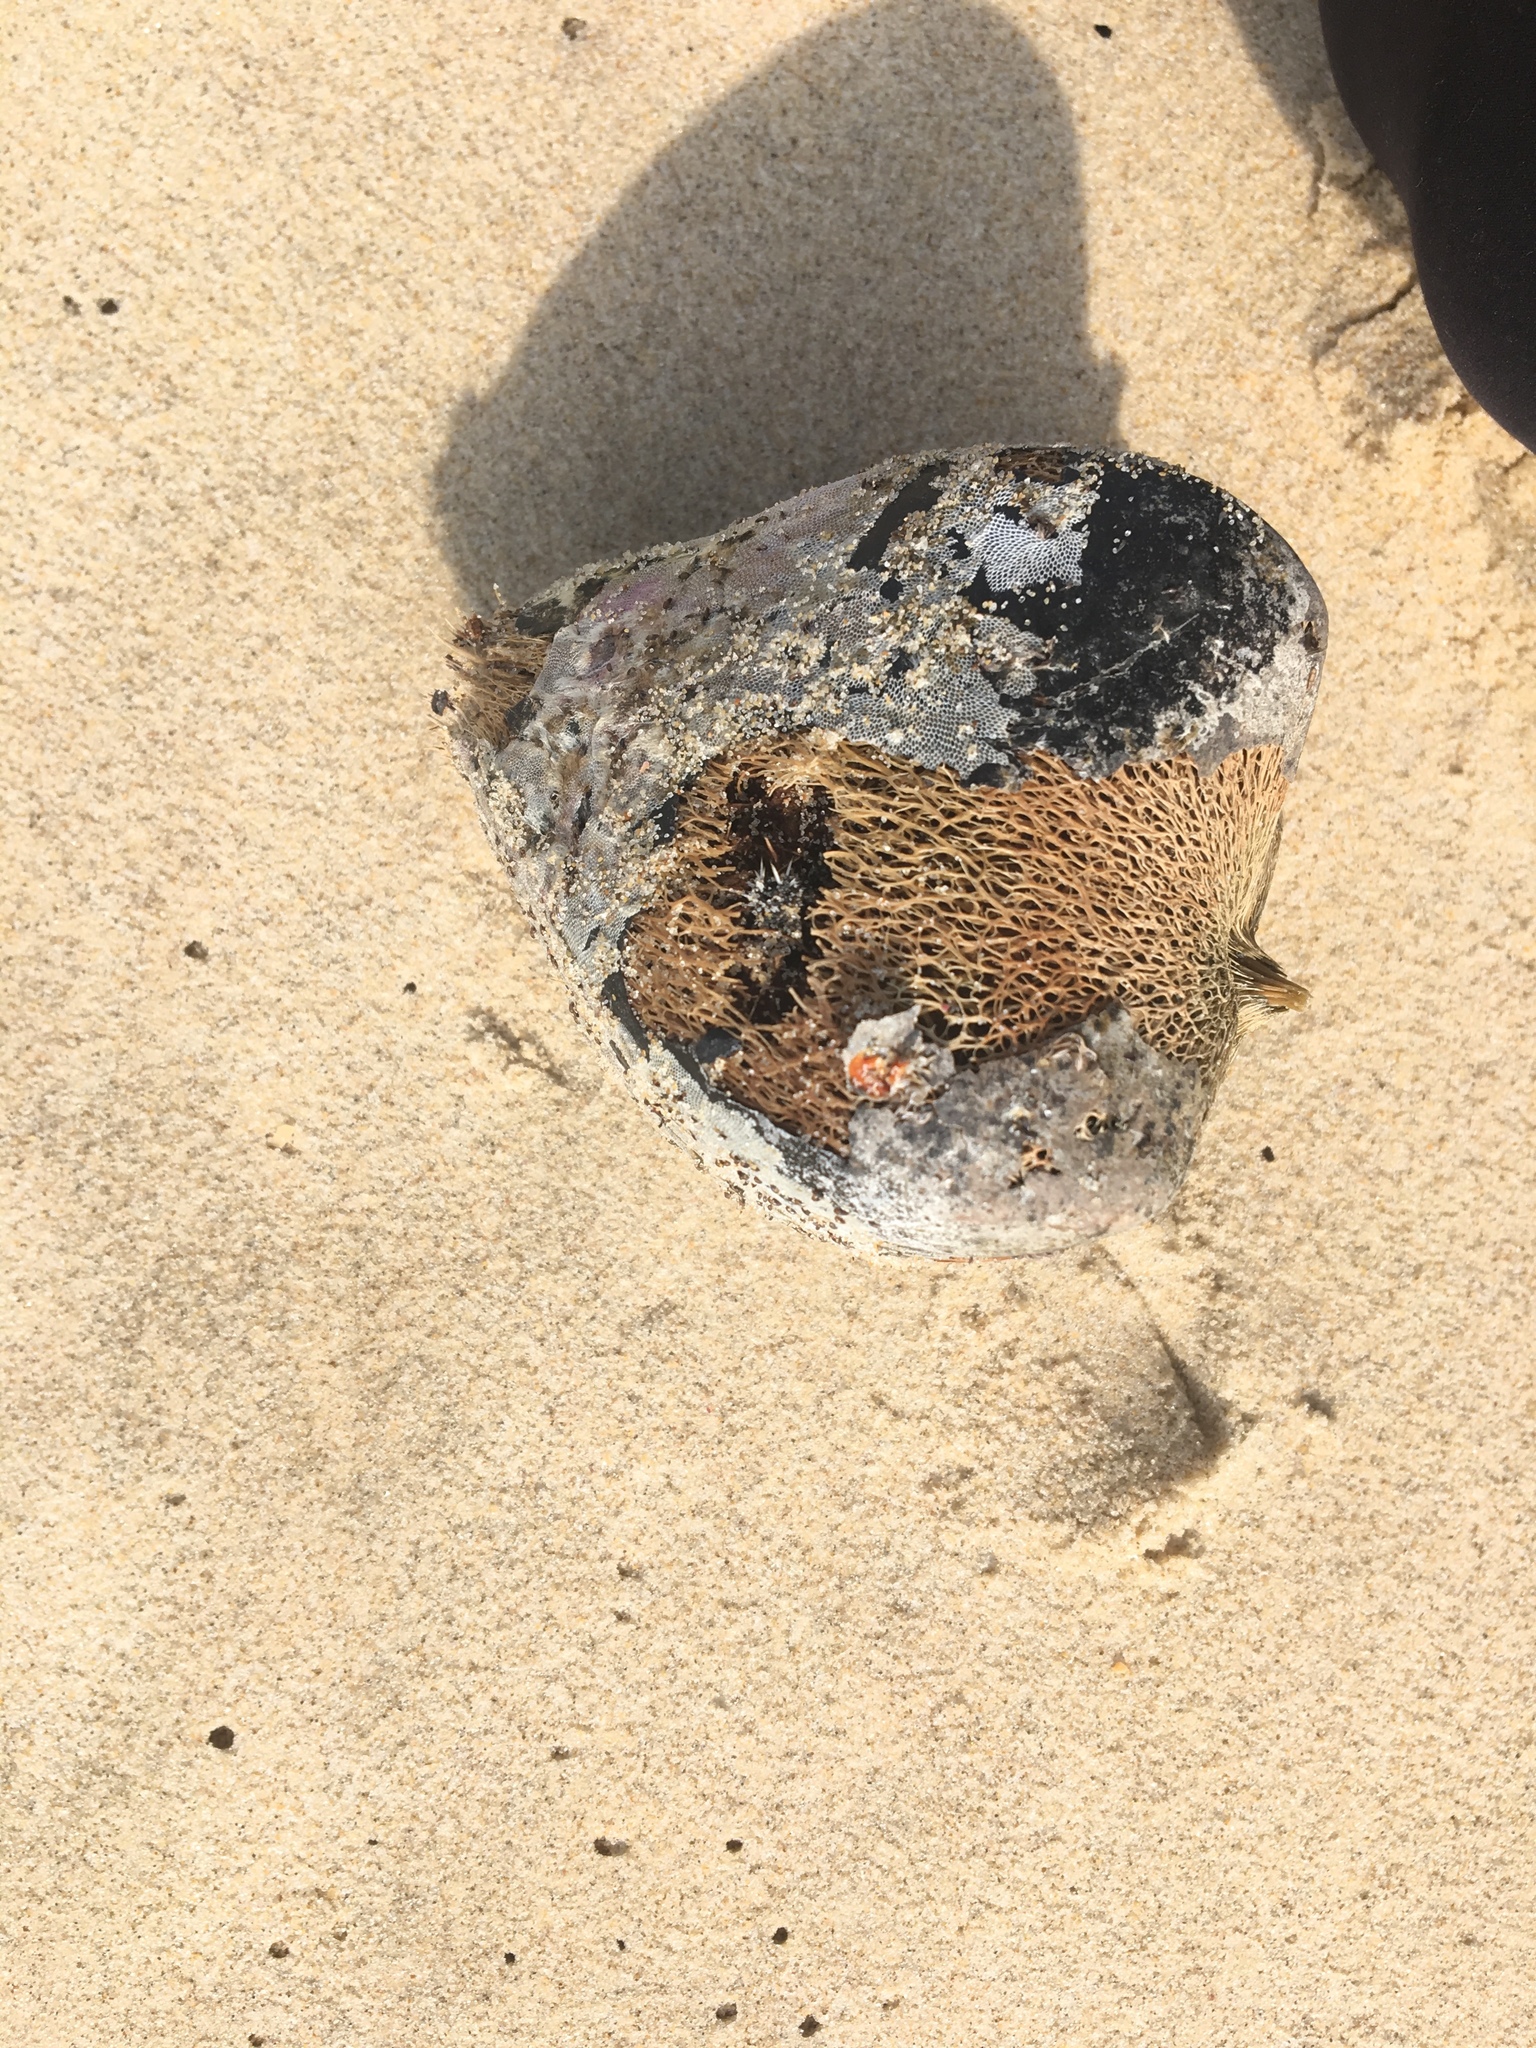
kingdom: Plantae
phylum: Tracheophyta
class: Magnoliopsida
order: Ericales
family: Lecythidaceae
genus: Barringtonia
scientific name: Barringtonia asiatica
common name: Mango-pine
